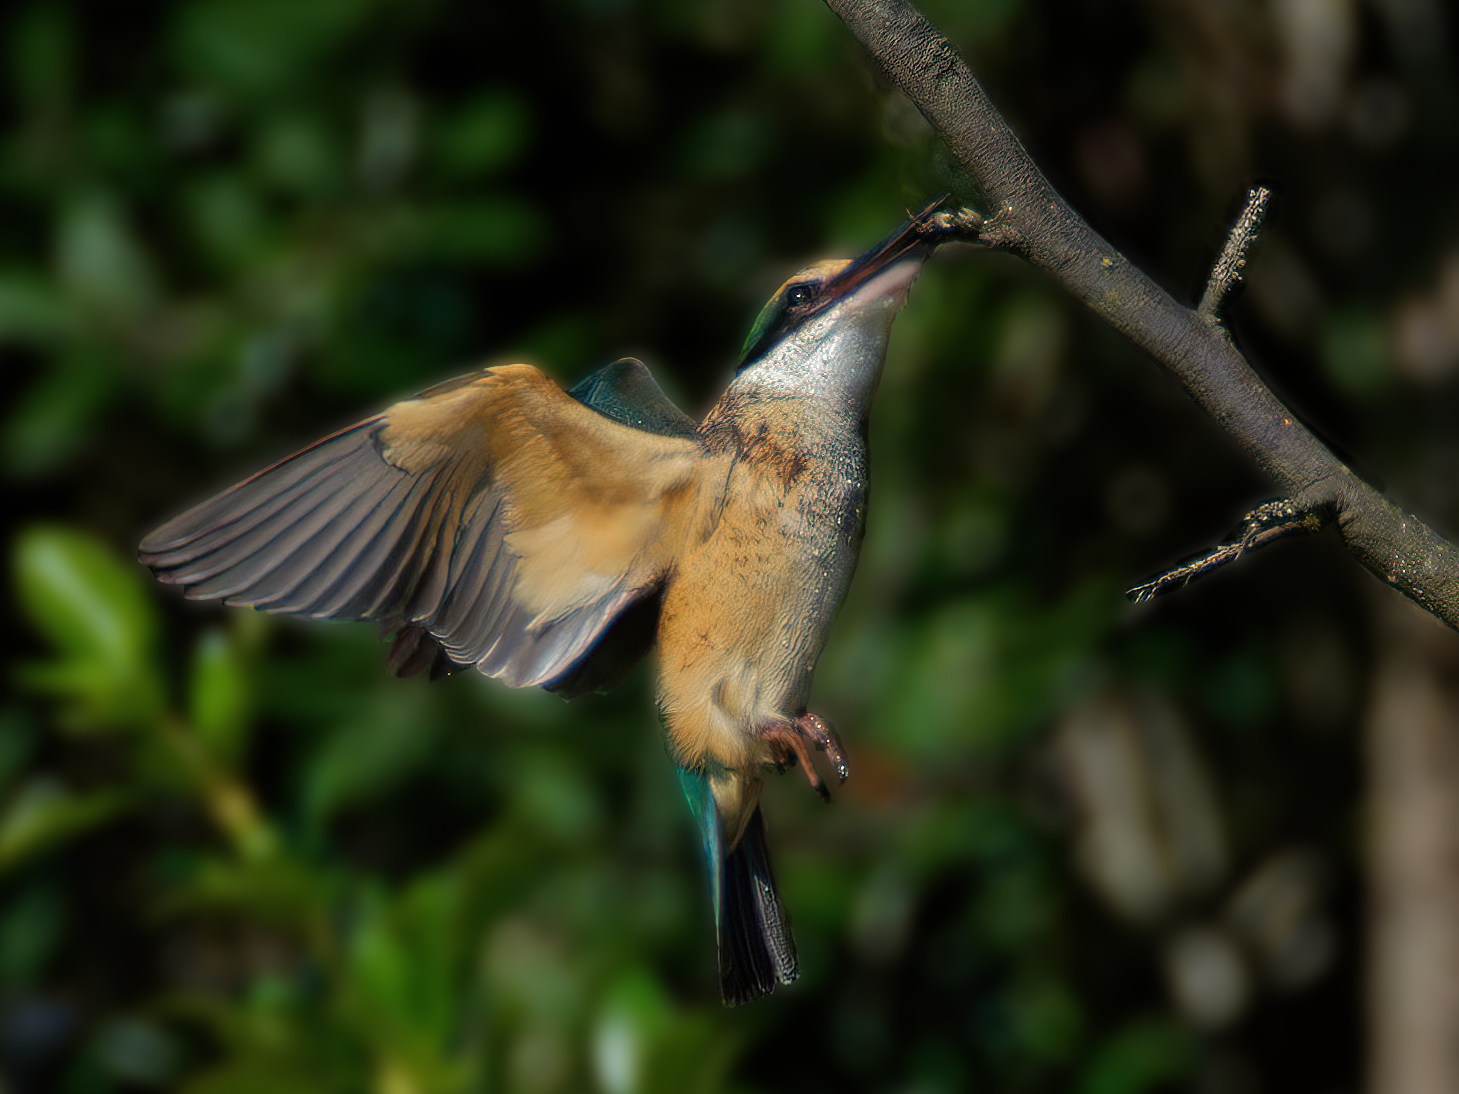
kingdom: Animalia
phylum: Chordata
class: Aves
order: Coraciiformes
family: Alcedinidae
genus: Todiramphus
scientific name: Todiramphus sanctus
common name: Sacred kingfisher
